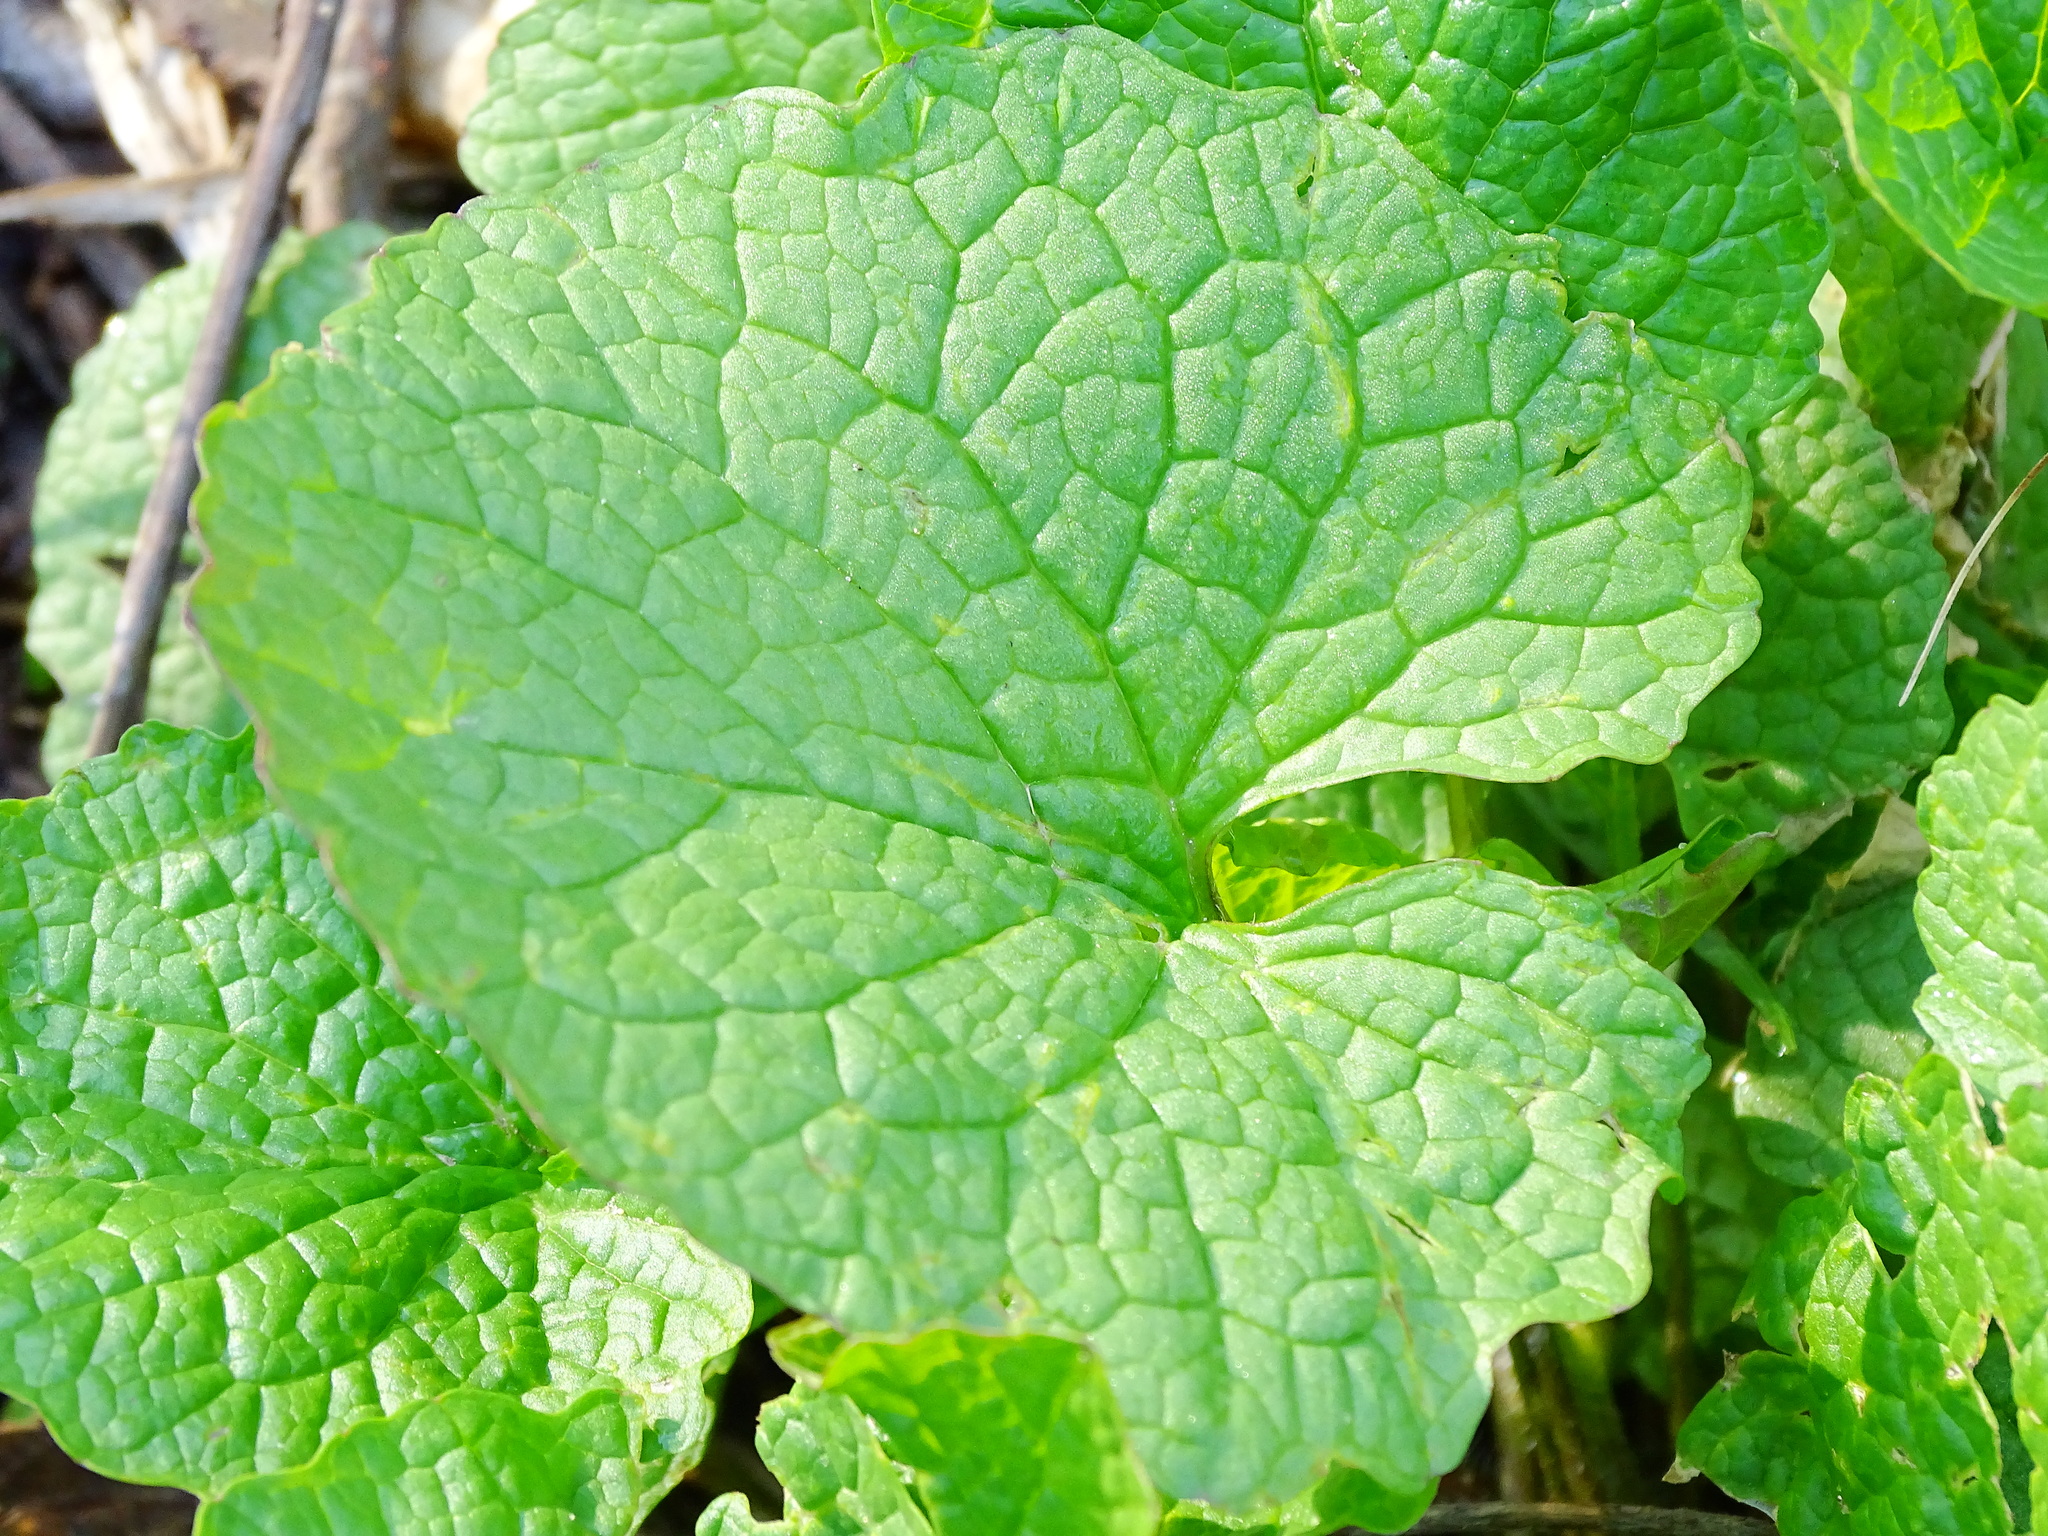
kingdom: Plantae
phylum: Tracheophyta
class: Magnoliopsida
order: Brassicales
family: Brassicaceae
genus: Alliaria
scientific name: Alliaria petiolata
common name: Garlic mustard
